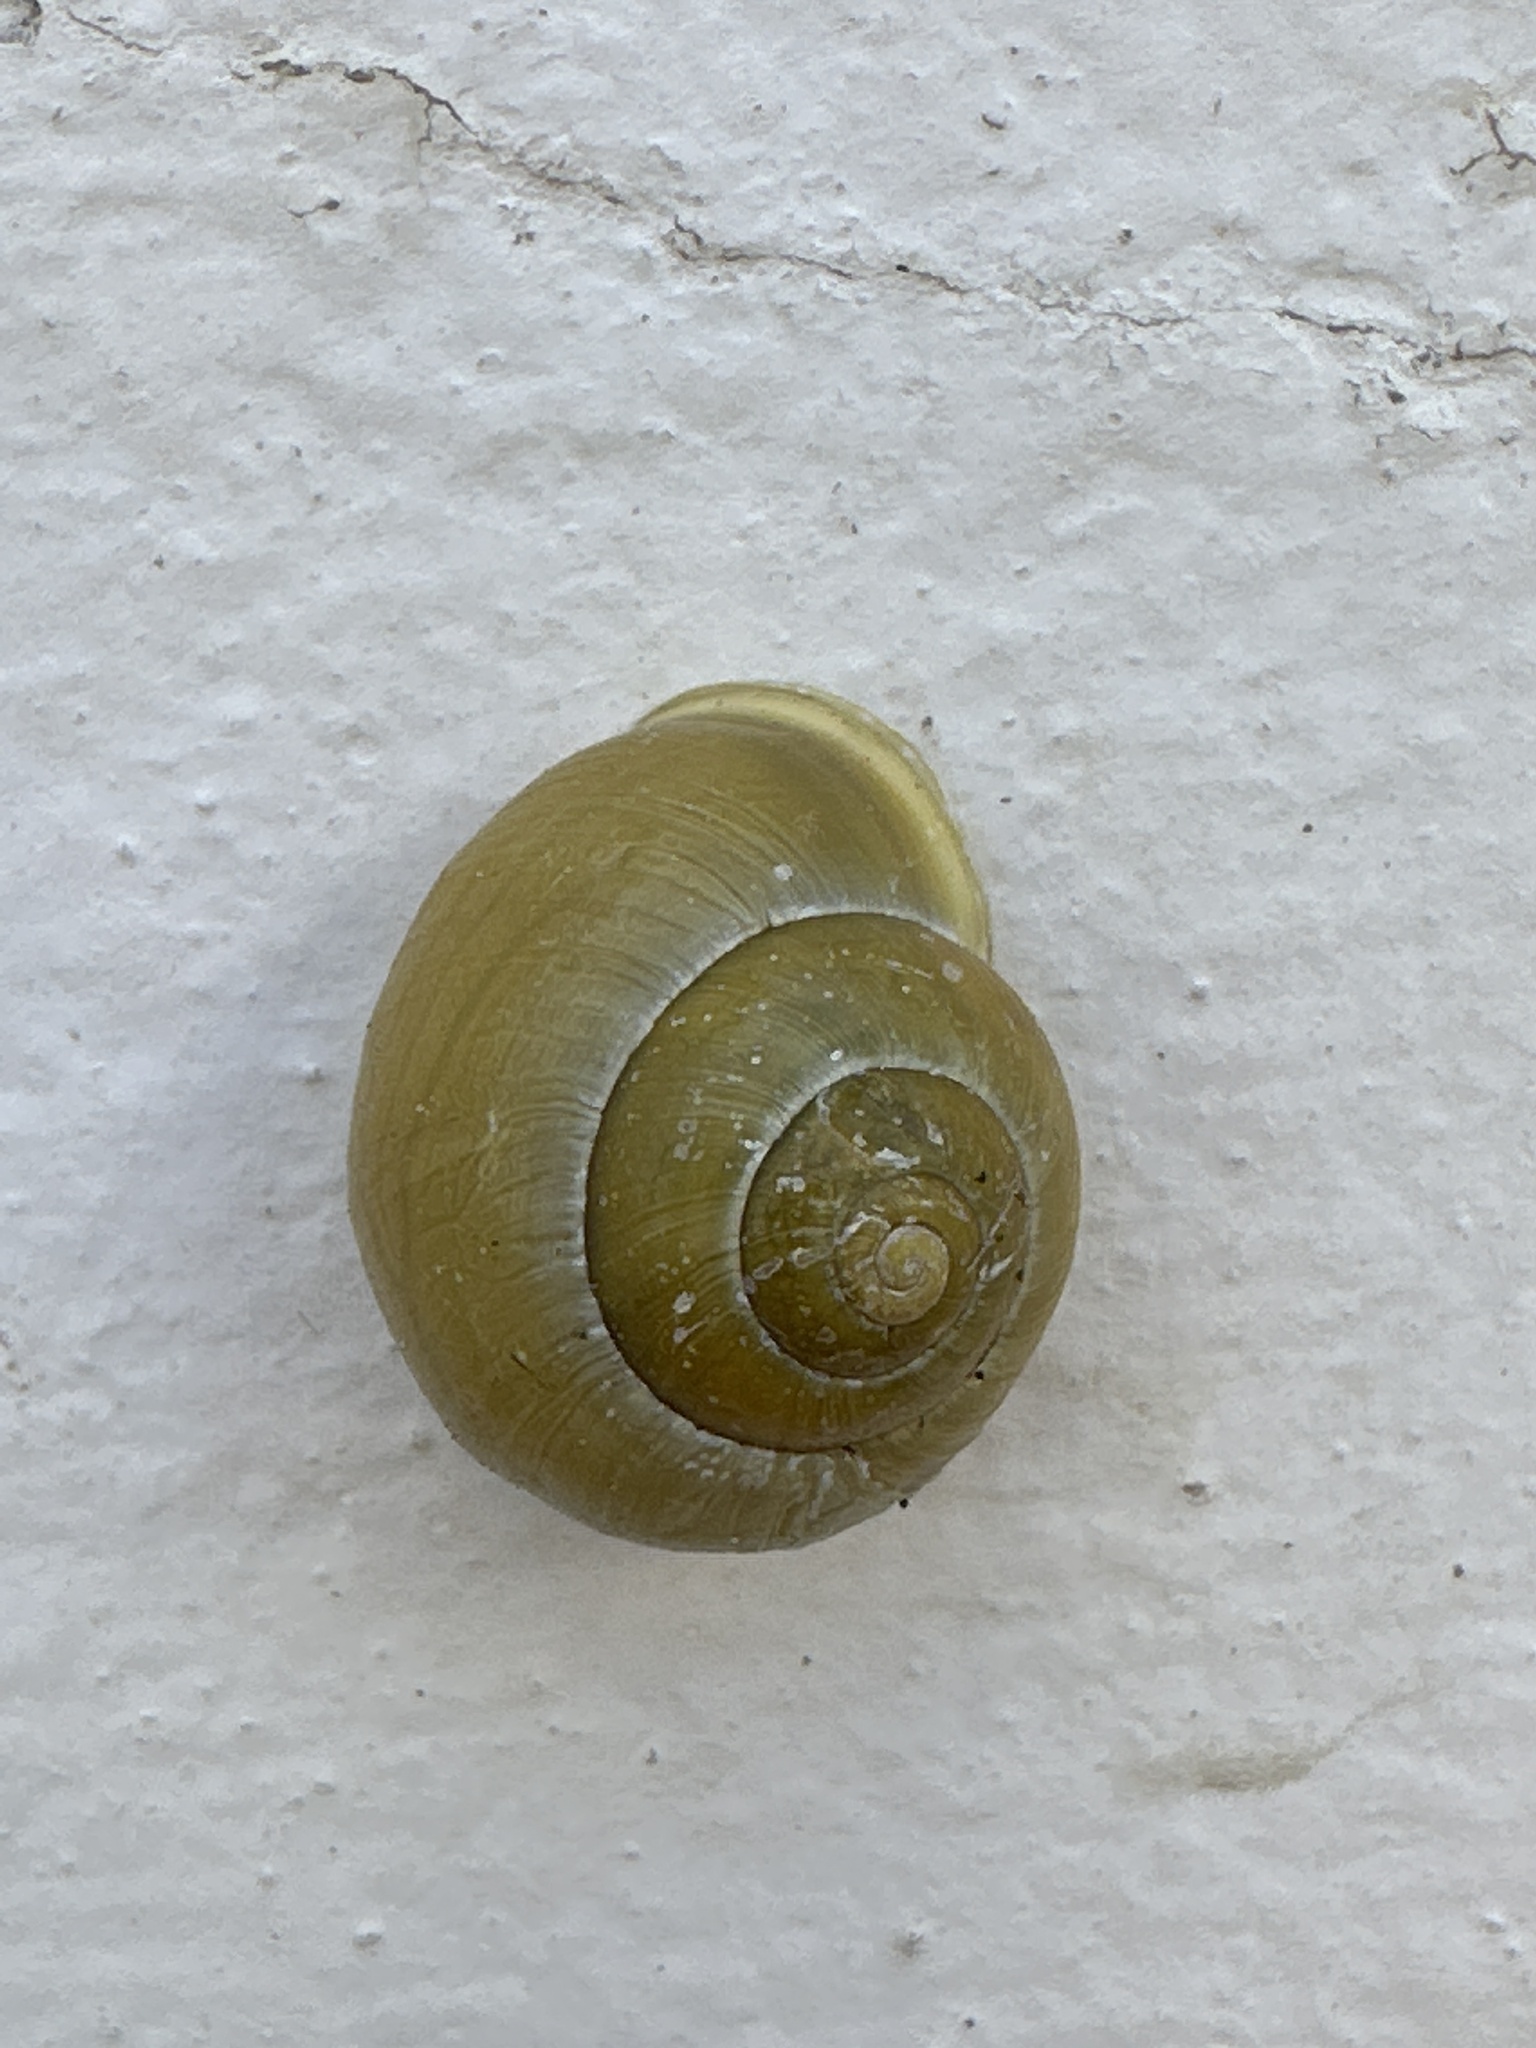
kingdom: Animalia
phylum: Mollusca
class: Gastropoda
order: Stylommatophora
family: Helicidae
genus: Cepaea
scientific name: Cepaea hortensis
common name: White-lip gardensnail
